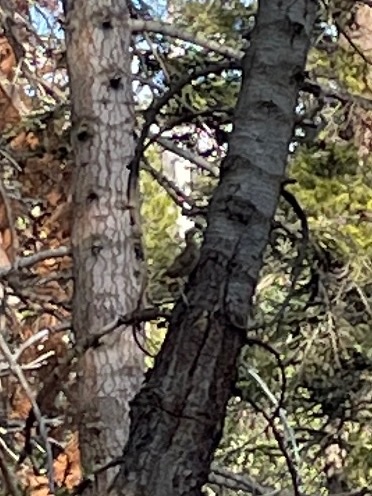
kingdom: Animalia
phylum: Chordata
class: Aves
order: Galliformes
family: Phasianidae
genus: Dendragapus
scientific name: Dendragapus fuliginosus
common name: Sooty grouse
